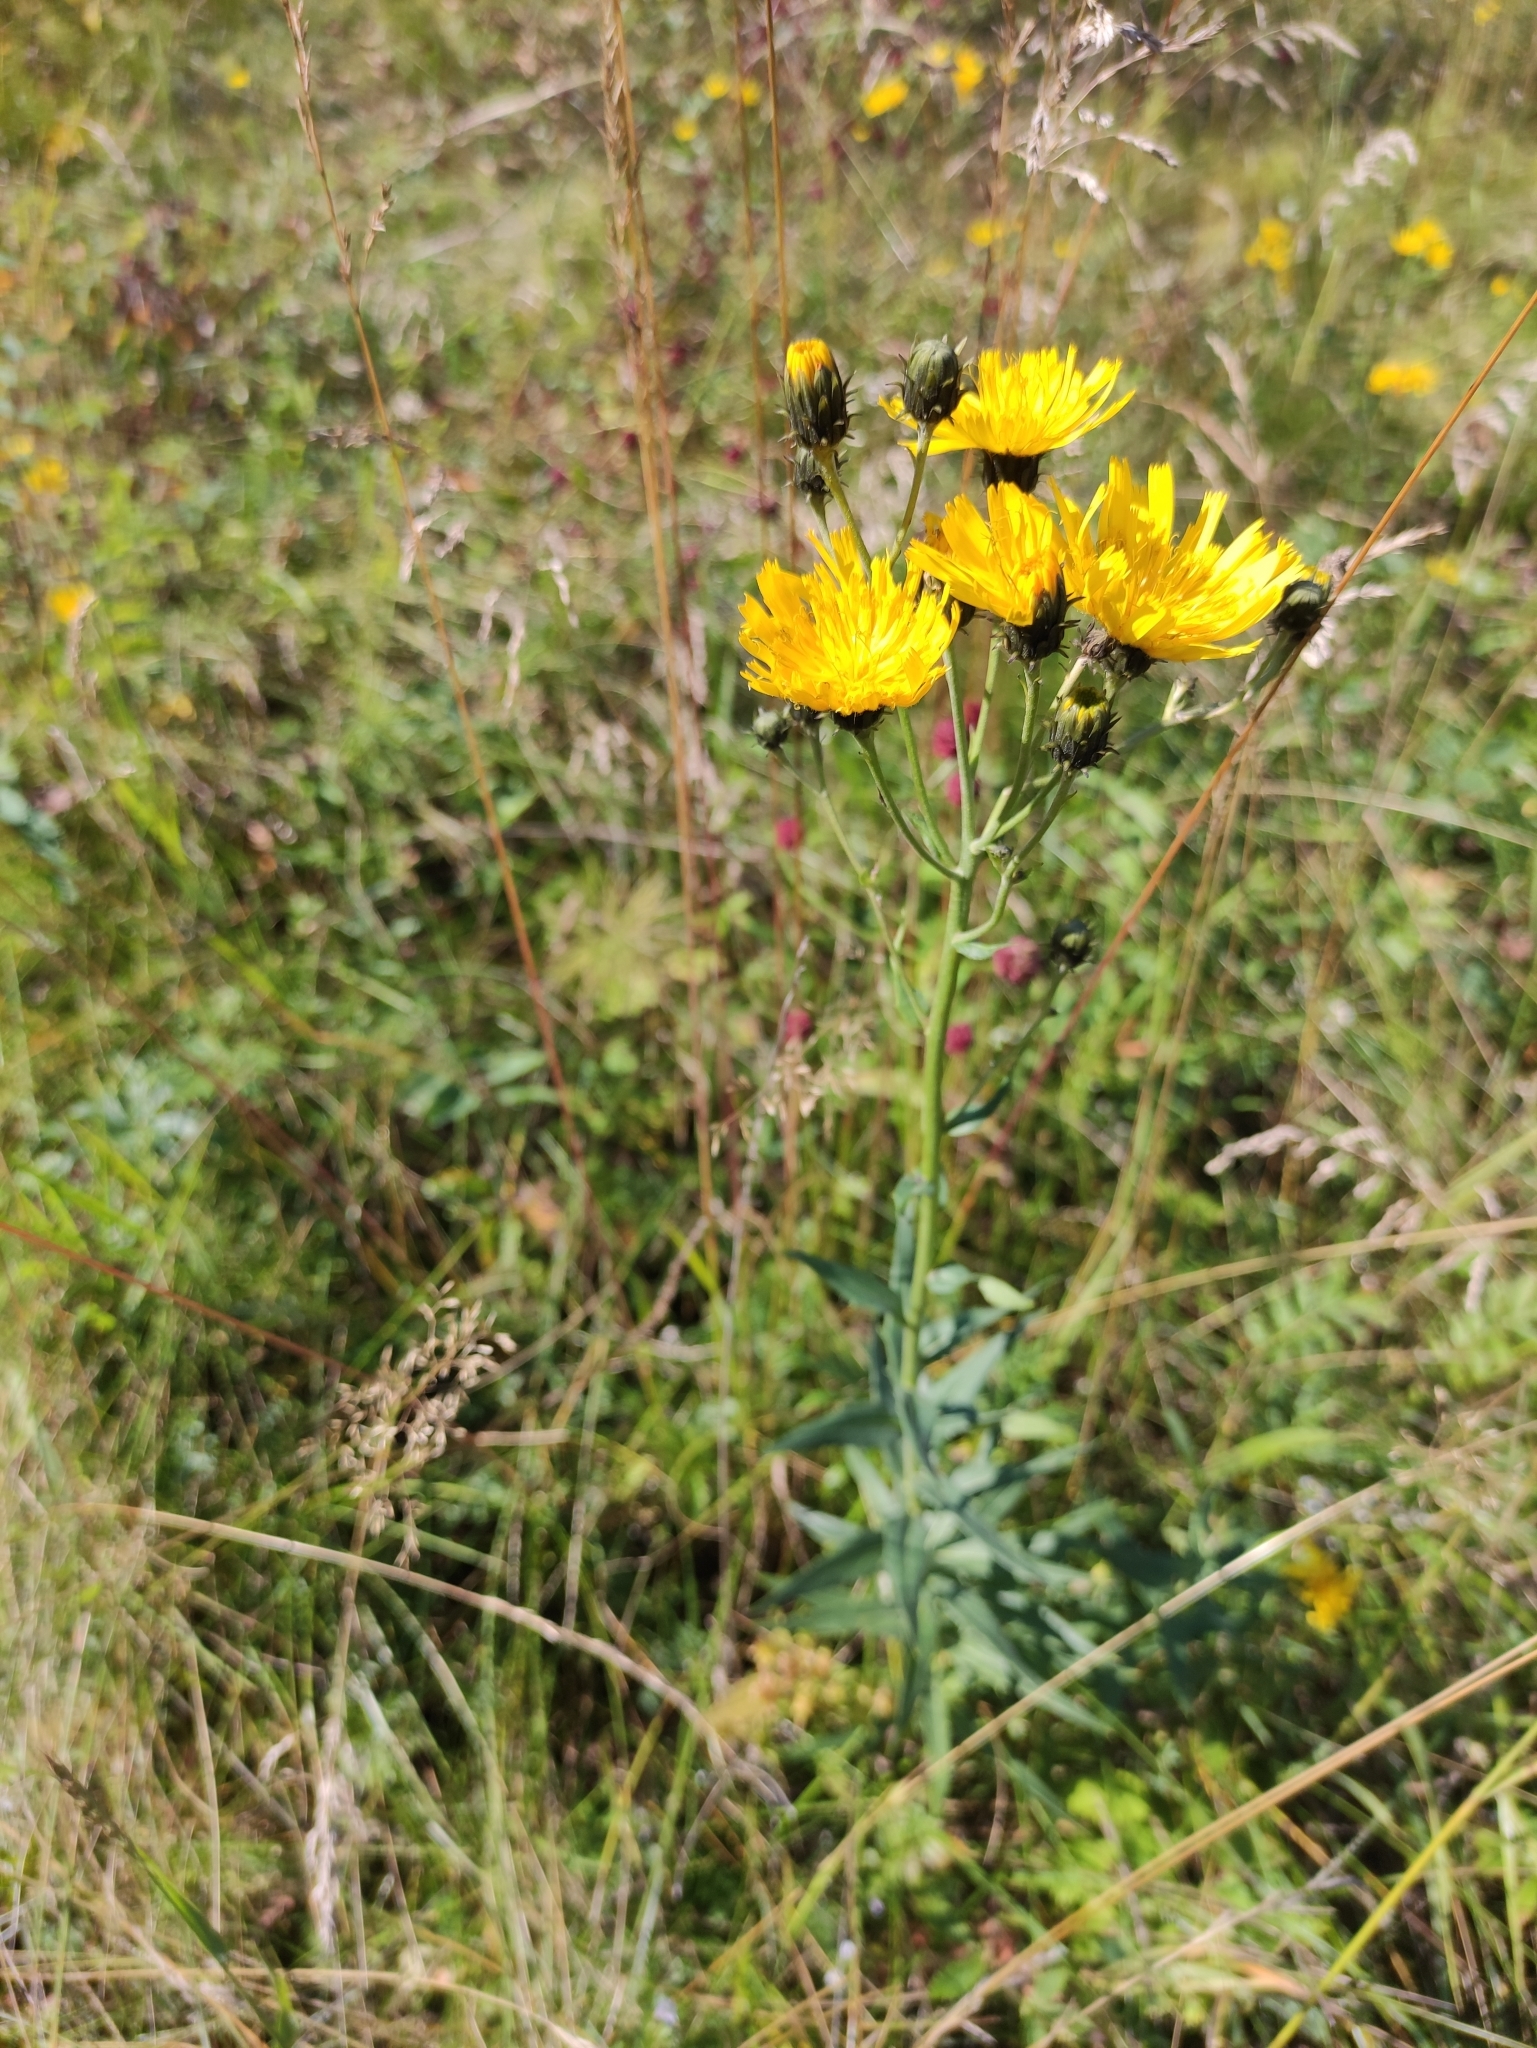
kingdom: Plantae
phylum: Tracheophyta
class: Magnoliopsida
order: Asterales
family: Asteraceae
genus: Hieracium
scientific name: Hieracium umbellatum
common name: Northern hawkweed
